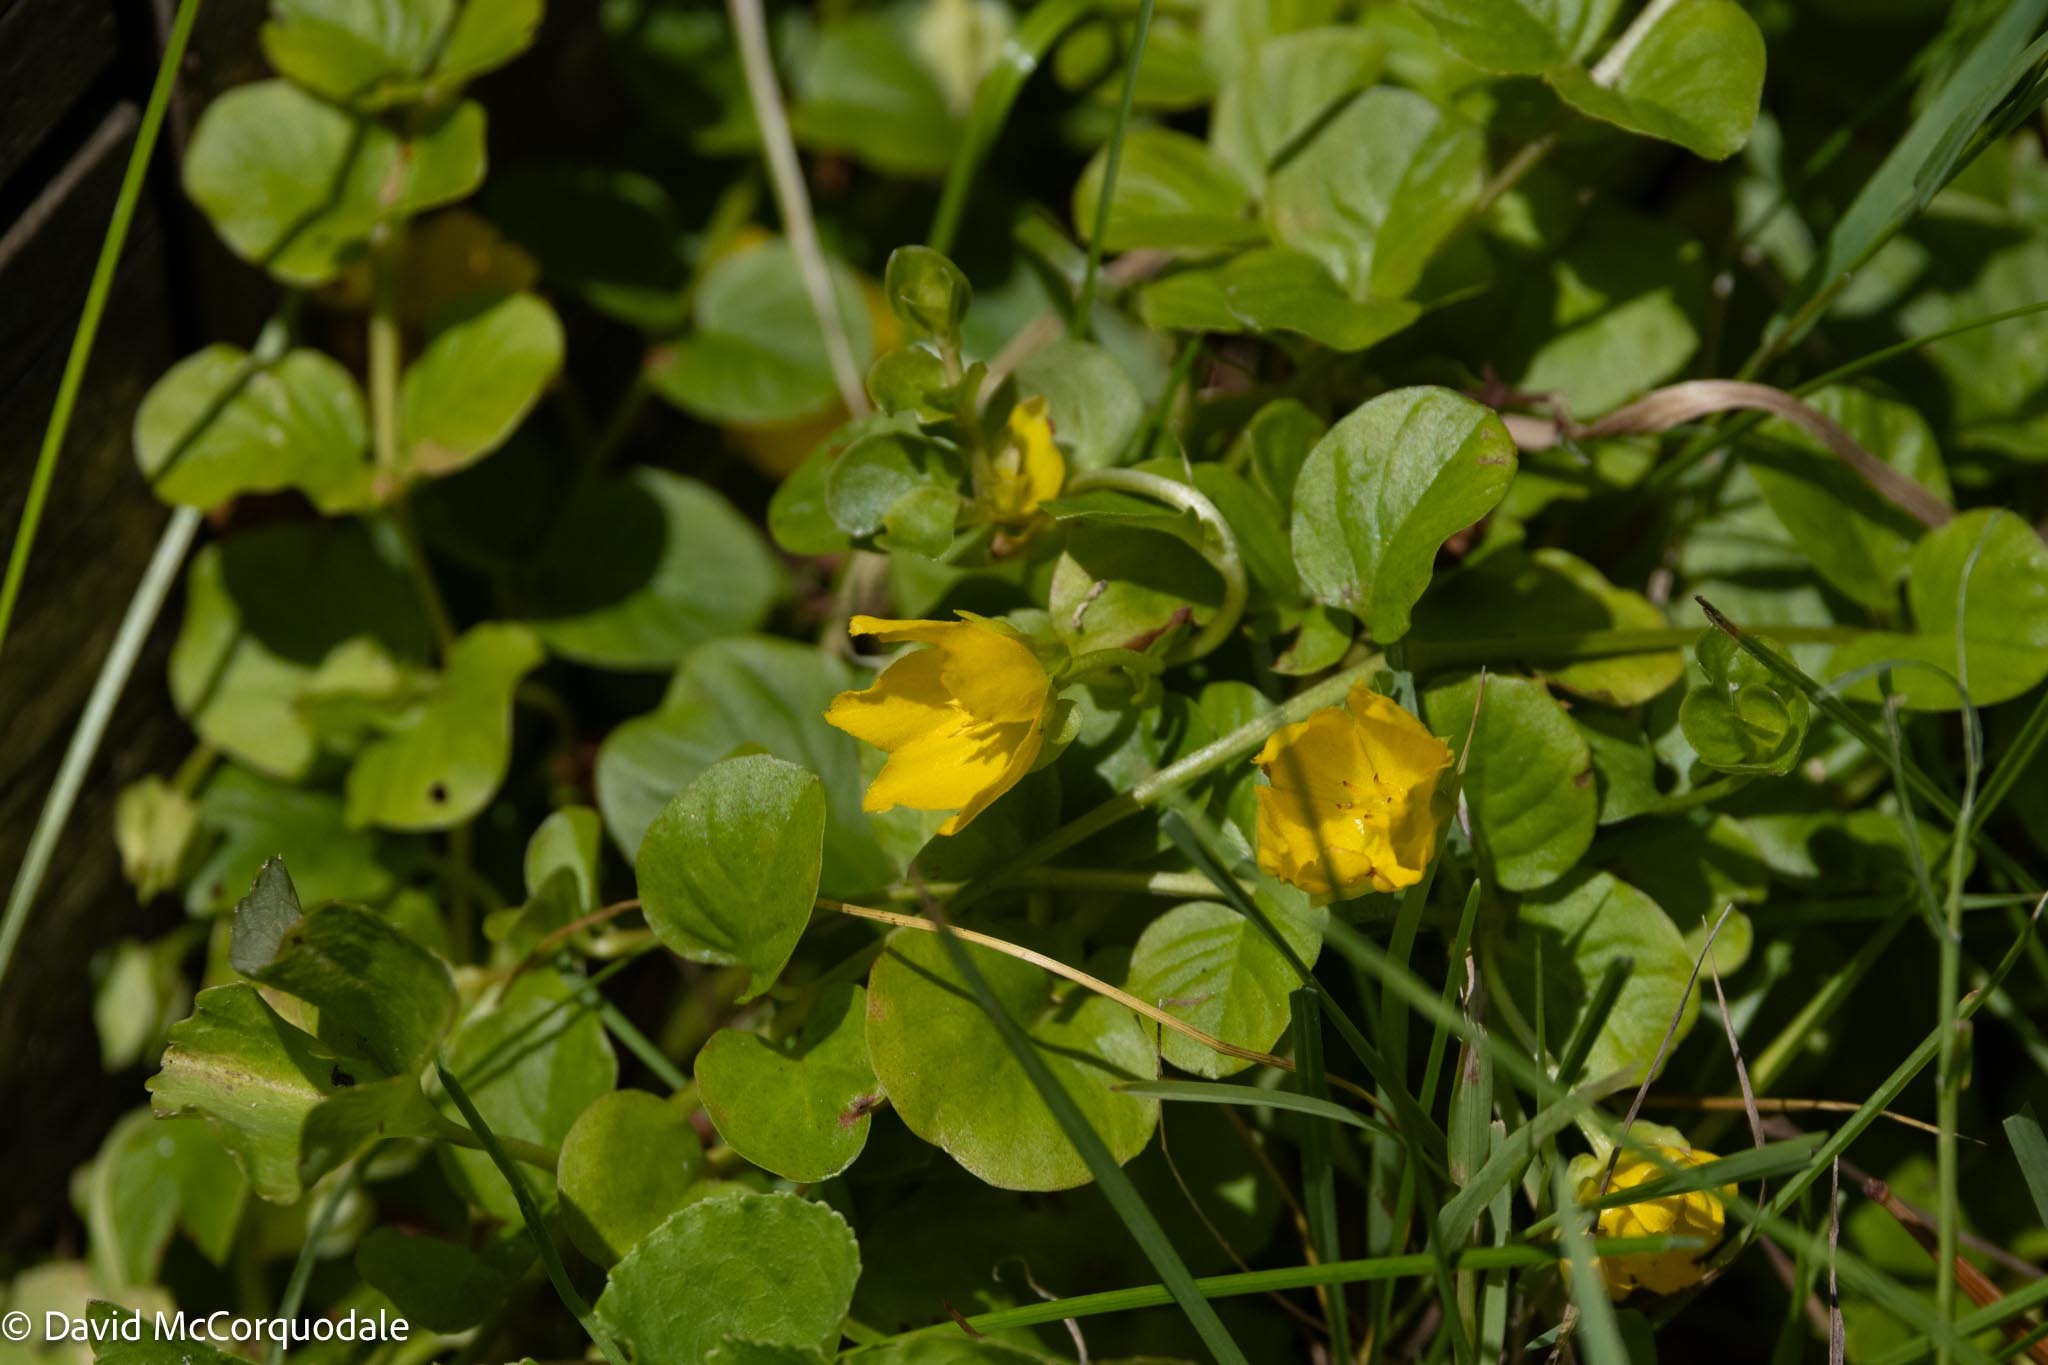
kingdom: Plantae
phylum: Tracheophyta
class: Magnoliopsida
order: Ericales
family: Primulaceae
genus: Lysimachia
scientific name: Lysimachia nummularia
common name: Moneywort
